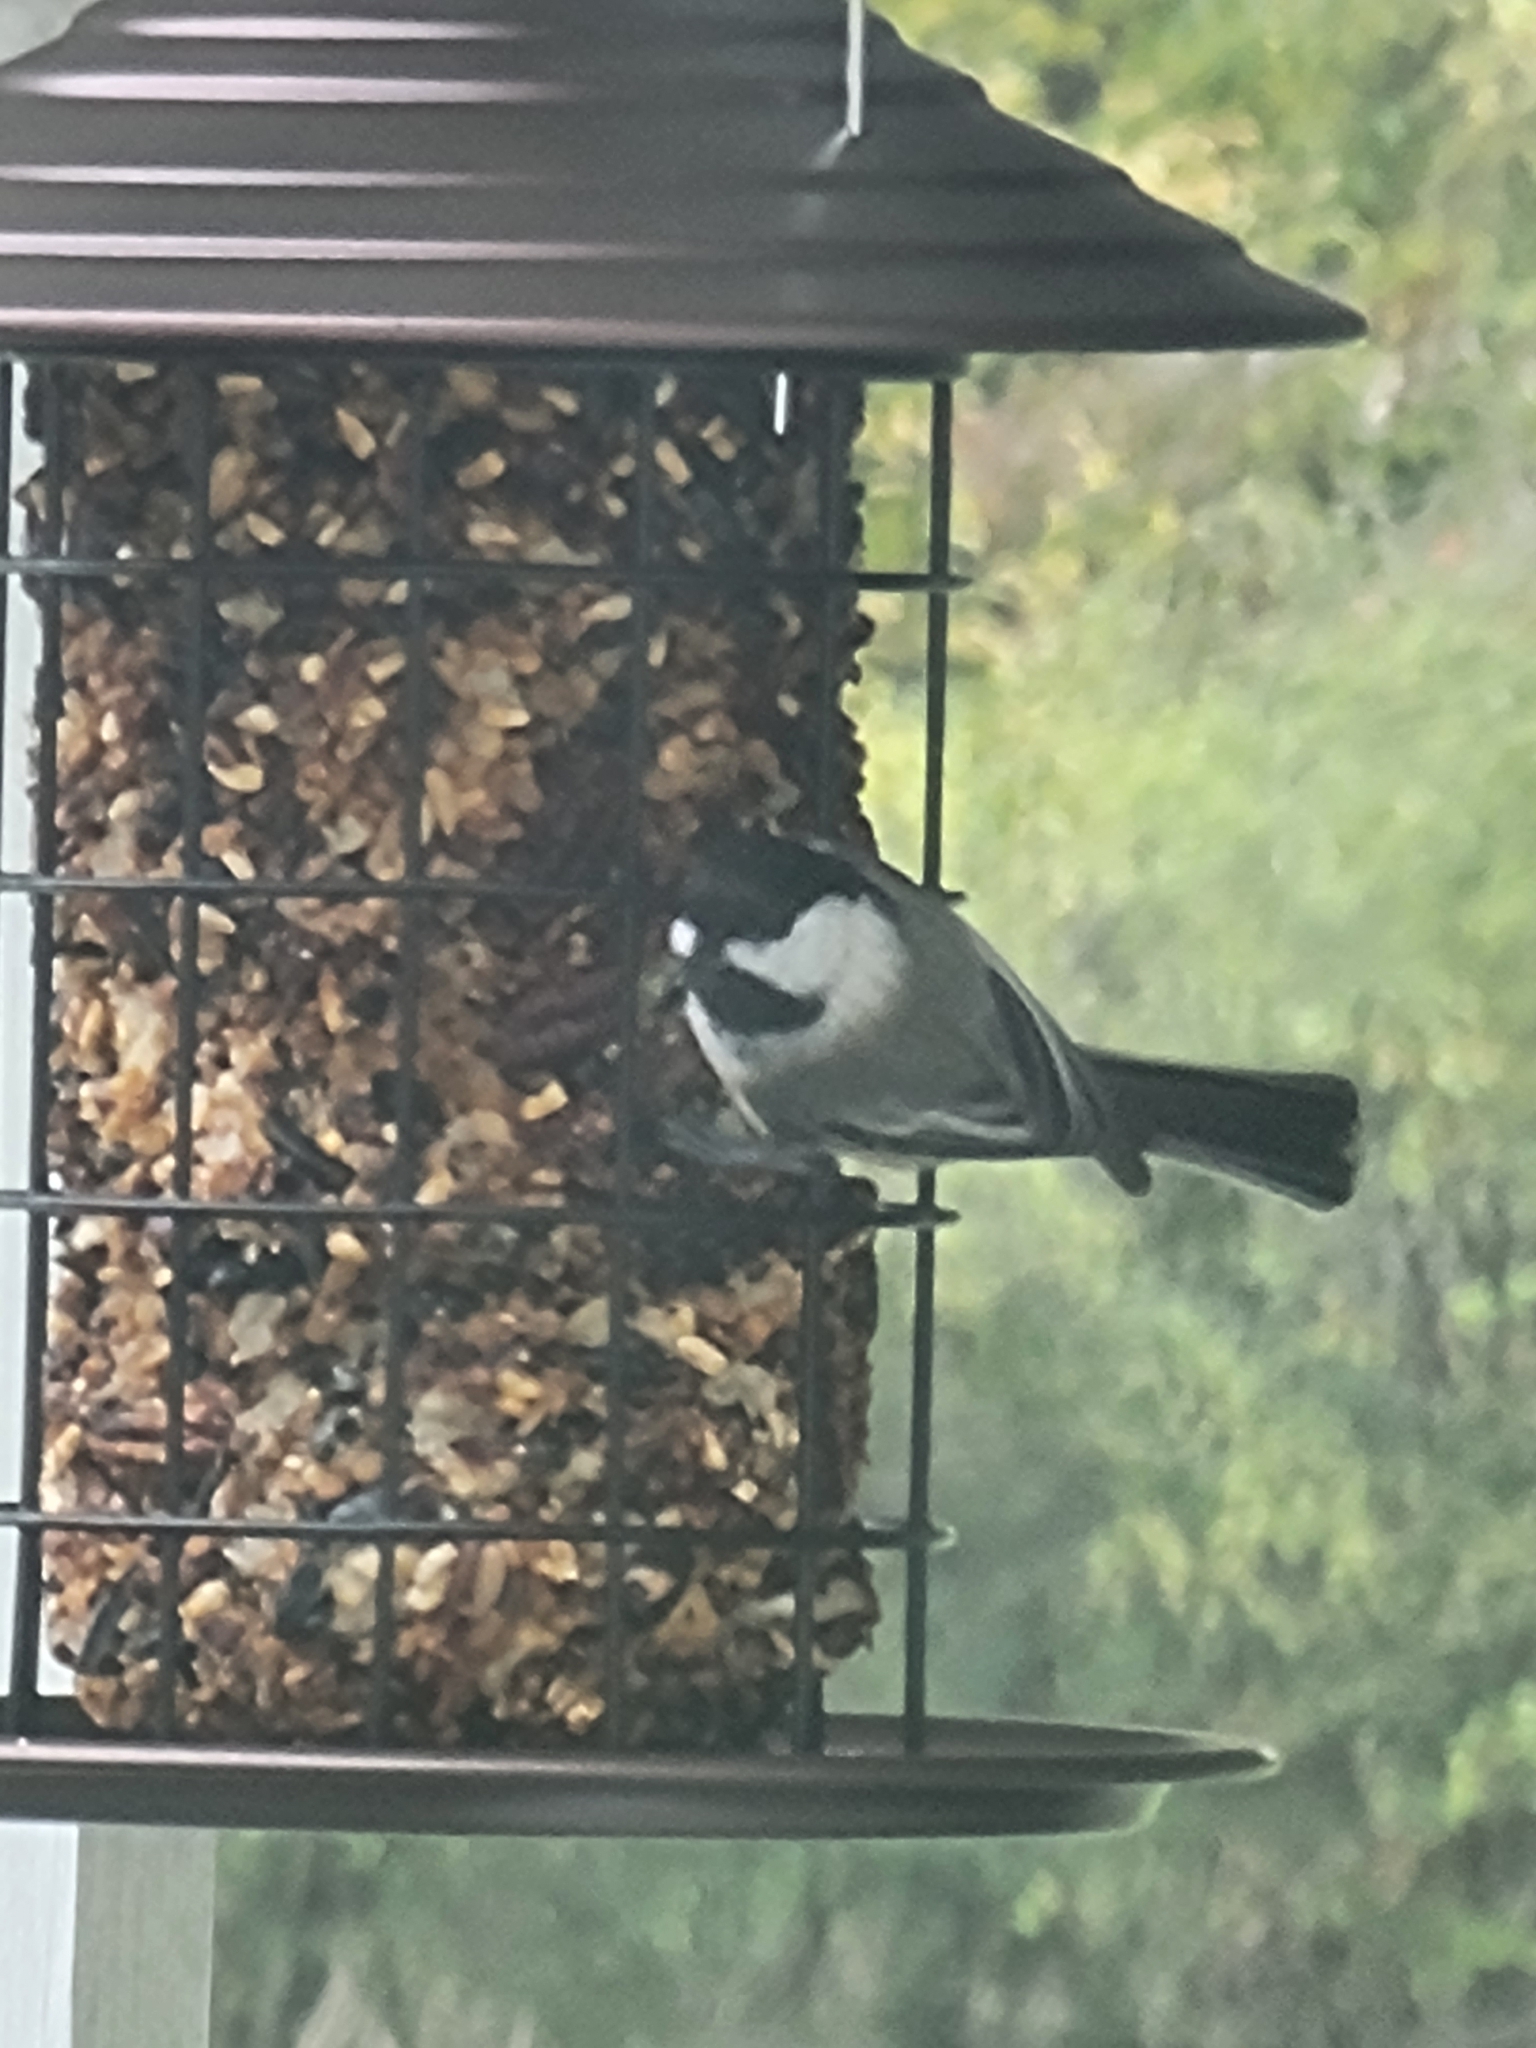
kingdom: Animalia
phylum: Chordata
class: Aves
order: Passeriformes
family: Paridae
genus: Poecile
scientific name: Poecile atricapillus
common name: Black-capped chickadee
